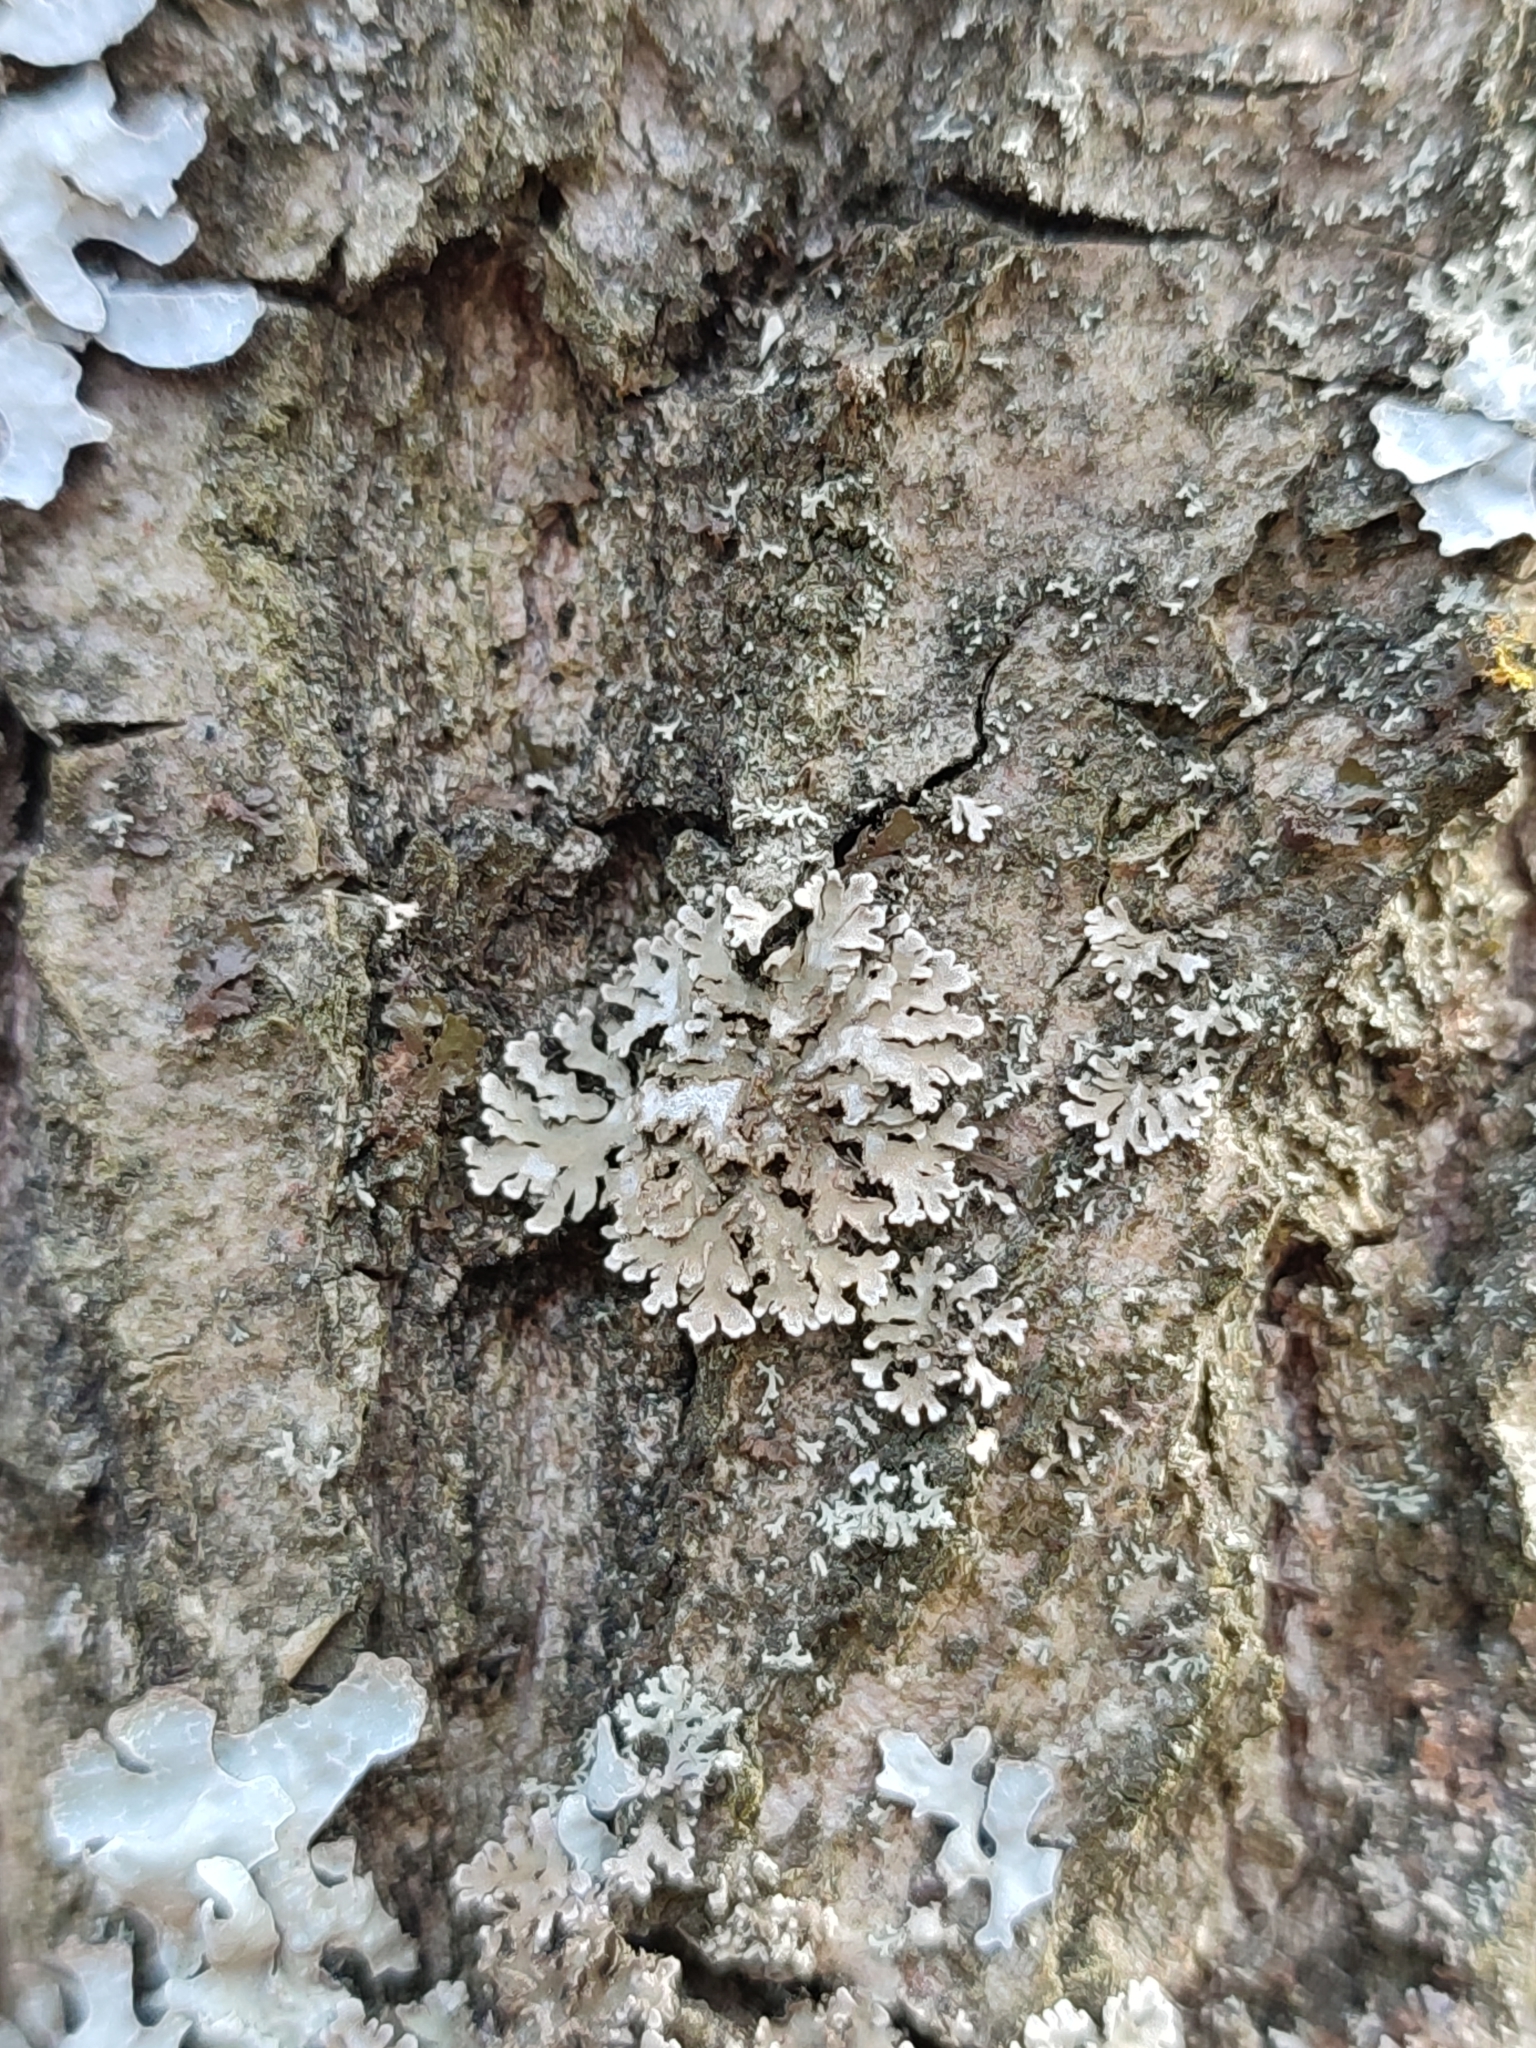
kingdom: Fungi
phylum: Ascomycota
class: Lecanoromycetes
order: Caliciales
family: Physciaceae
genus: Physconia
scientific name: Physconia enteroxantha
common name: Yellow-edged frost lichen
